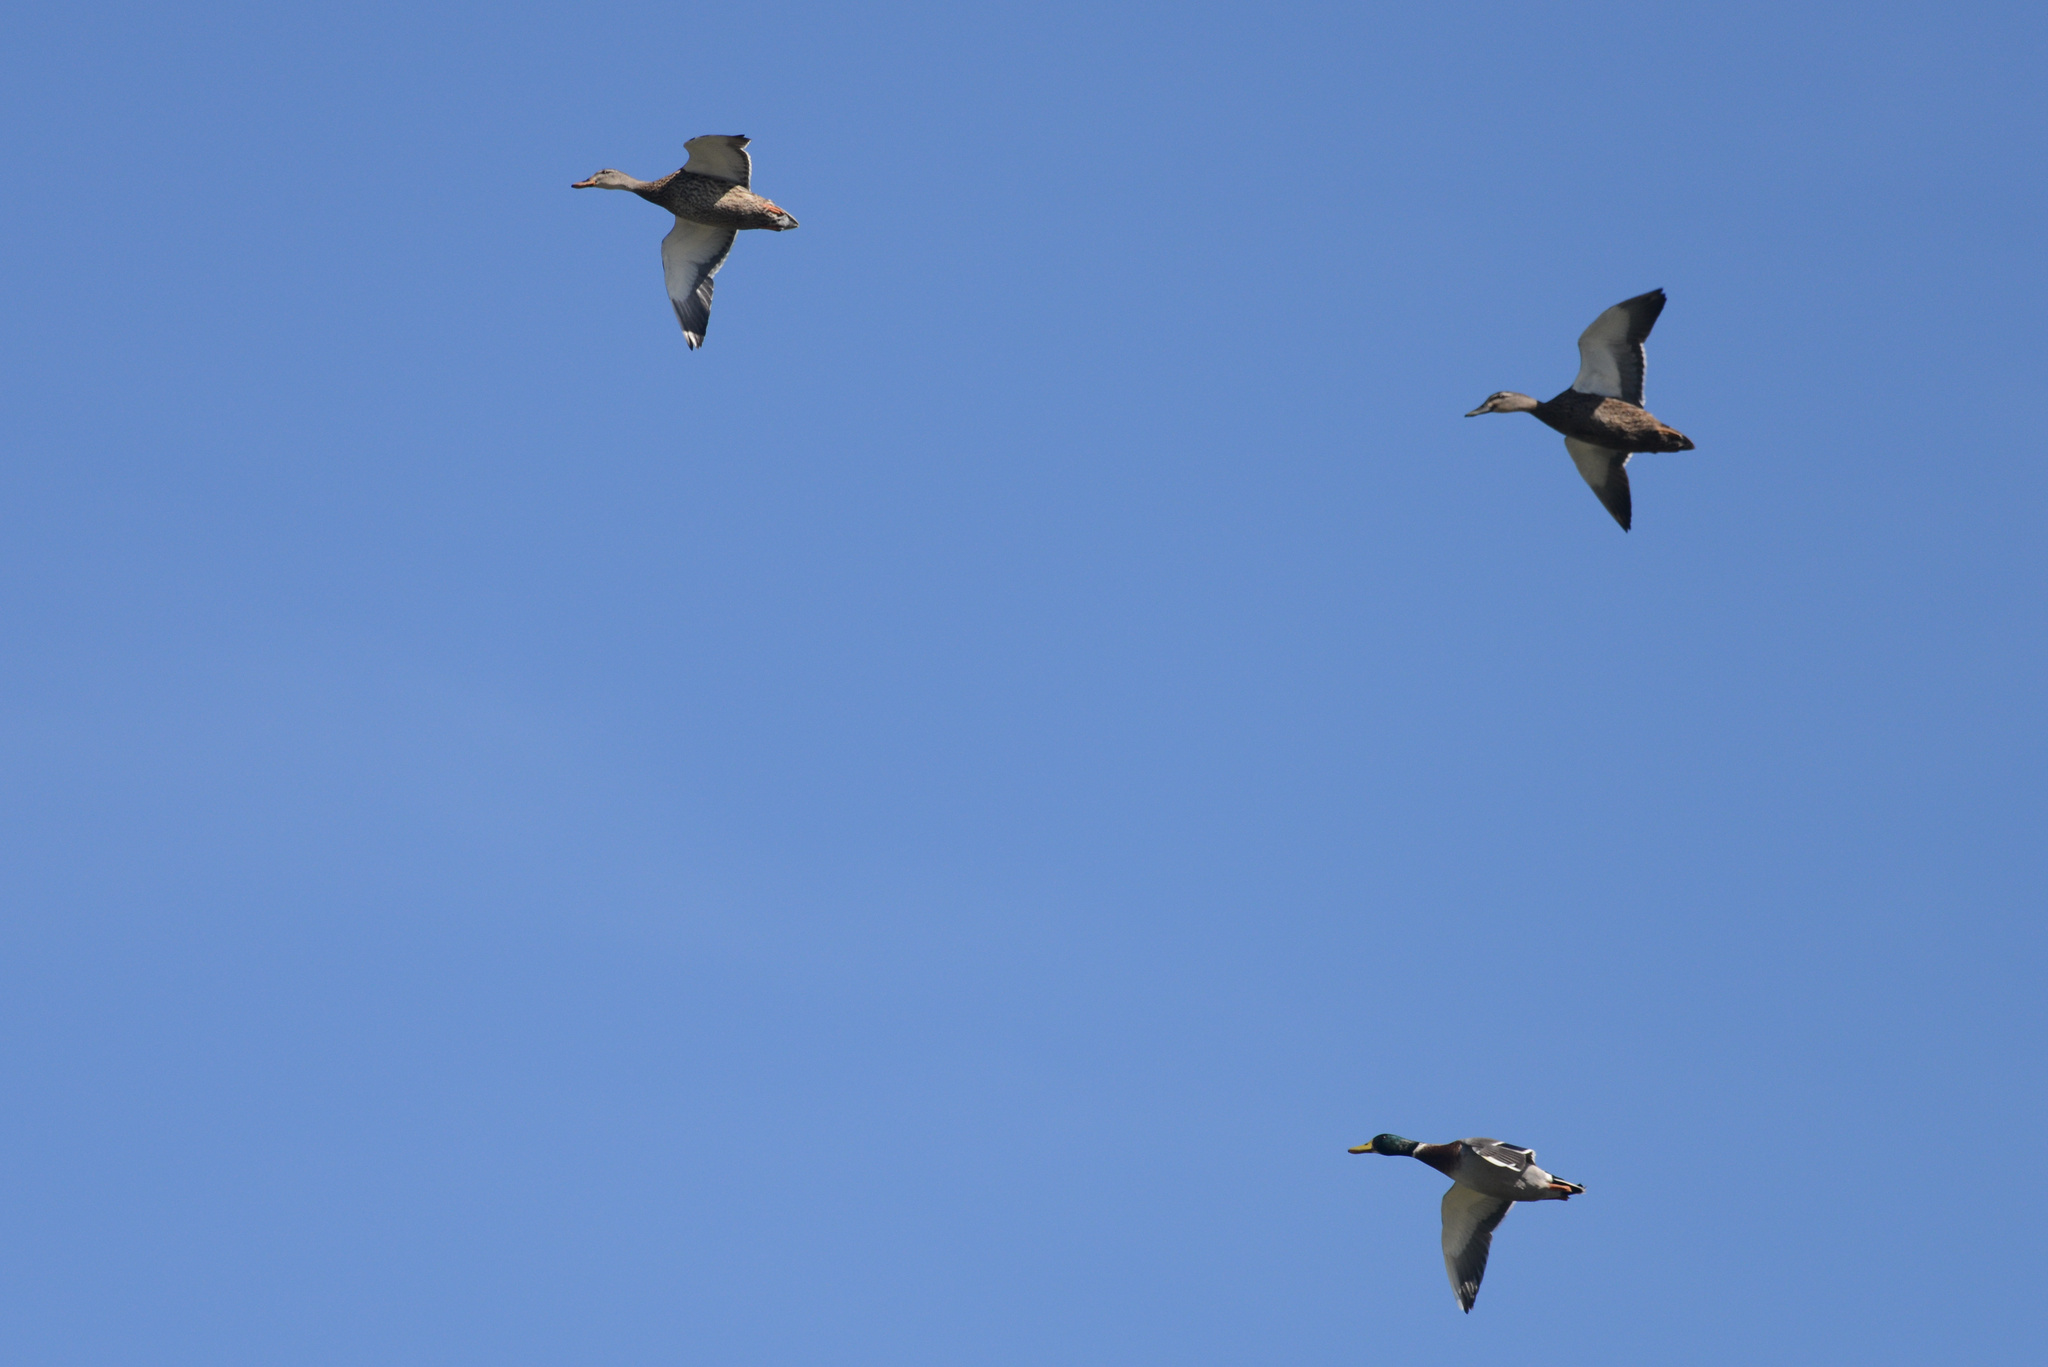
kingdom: Animalia
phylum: Chordata
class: Aves
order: Anseriformes
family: Anatidae
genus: Anas
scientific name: Anas platyrhynchos
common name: Mallard
